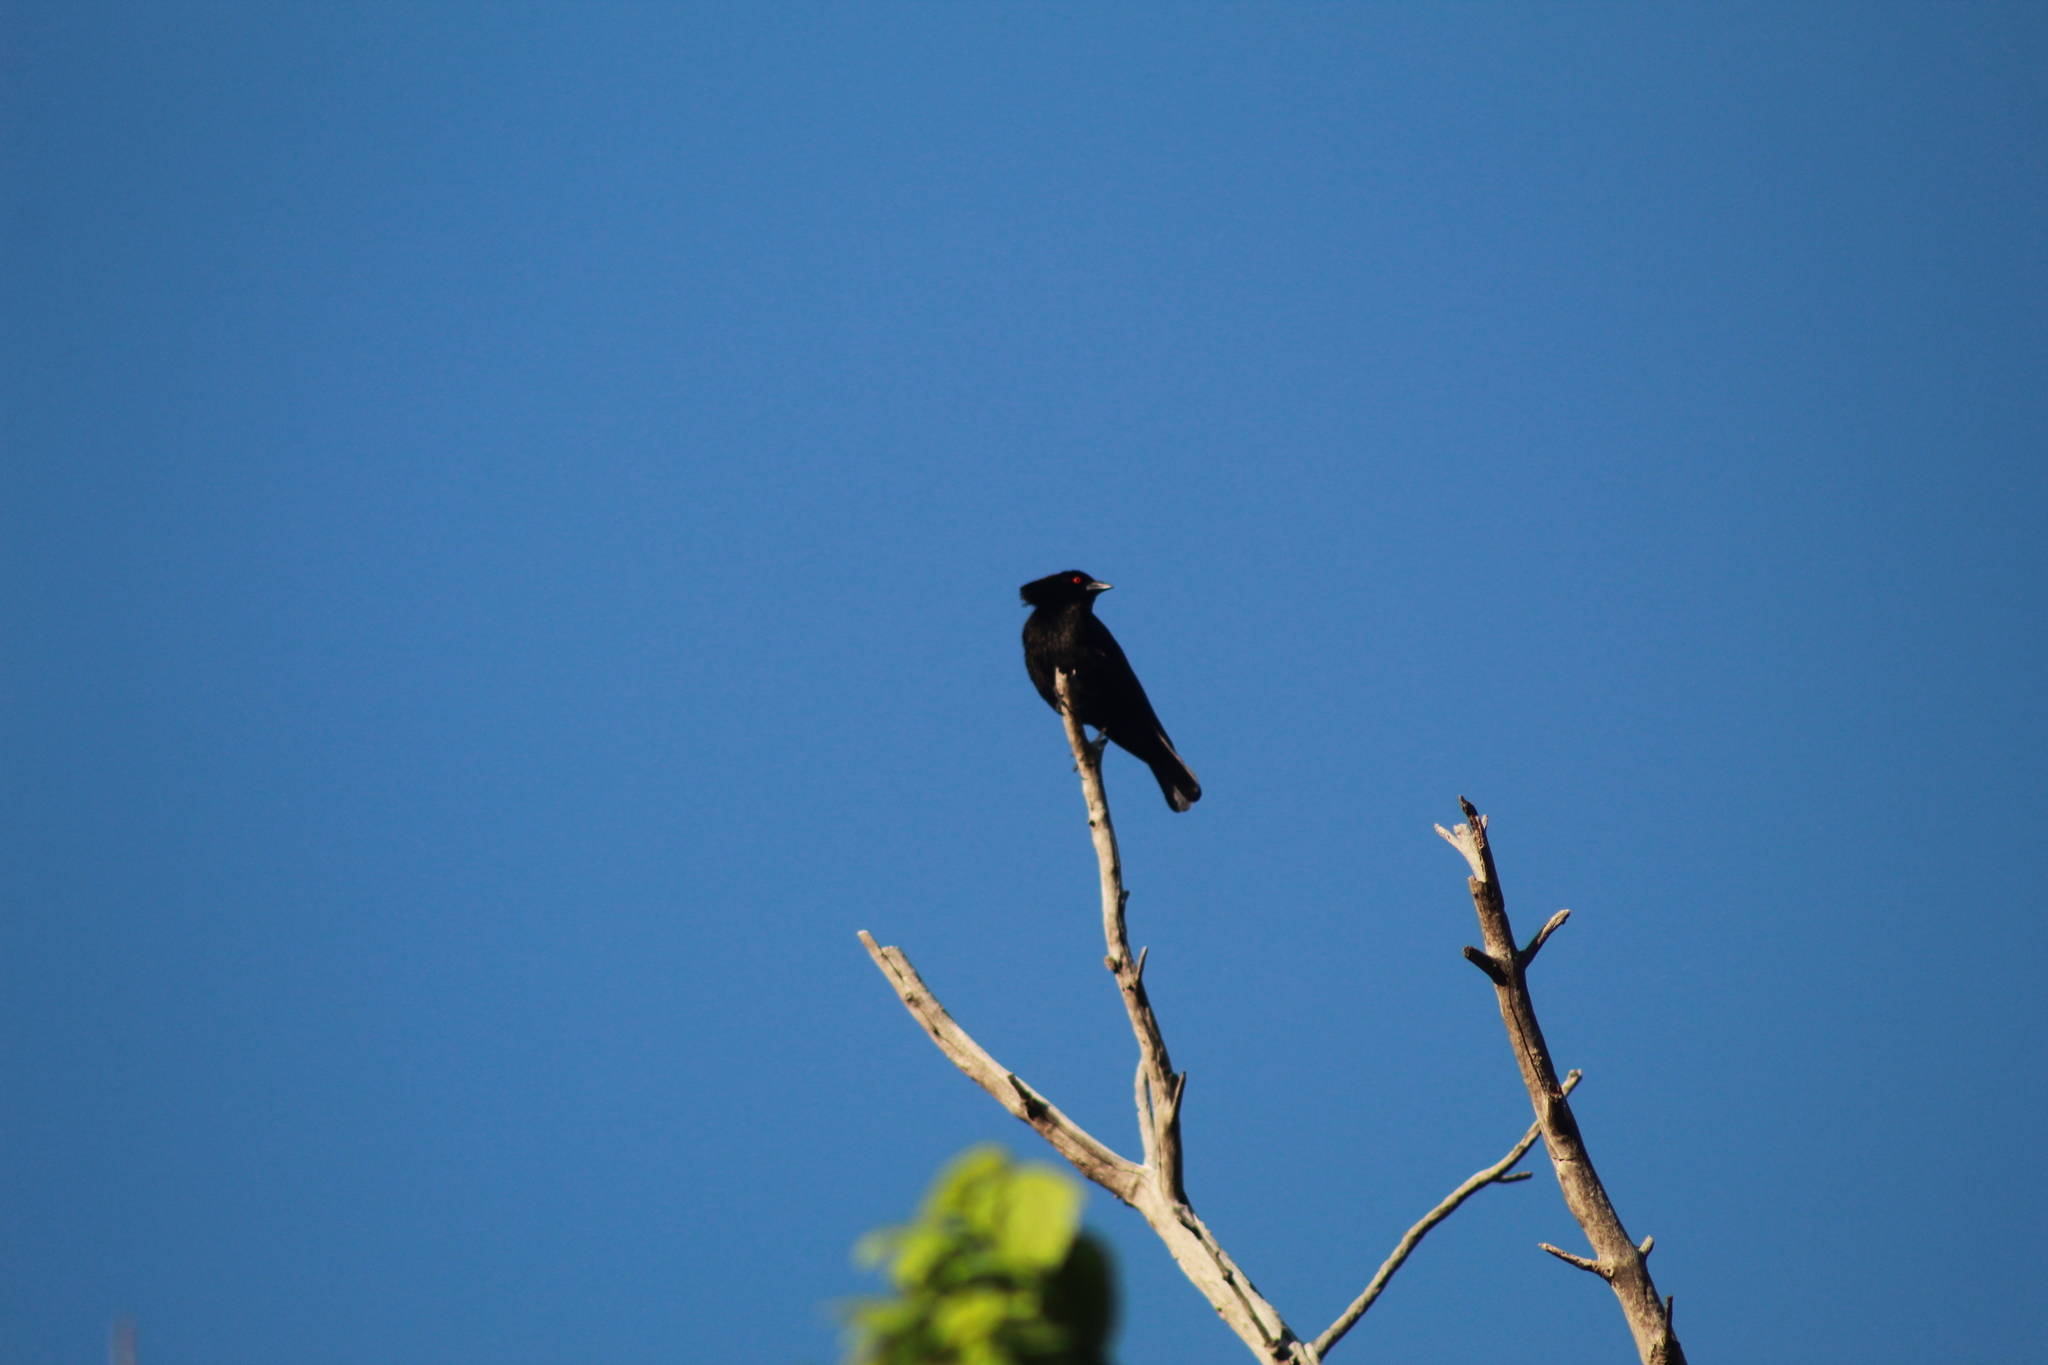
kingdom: Animalia
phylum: Chordata
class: Aves
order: Passeriformes
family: Icteridae
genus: Molothrus
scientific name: Molothrus aeneus
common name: Bronzed cowbird
